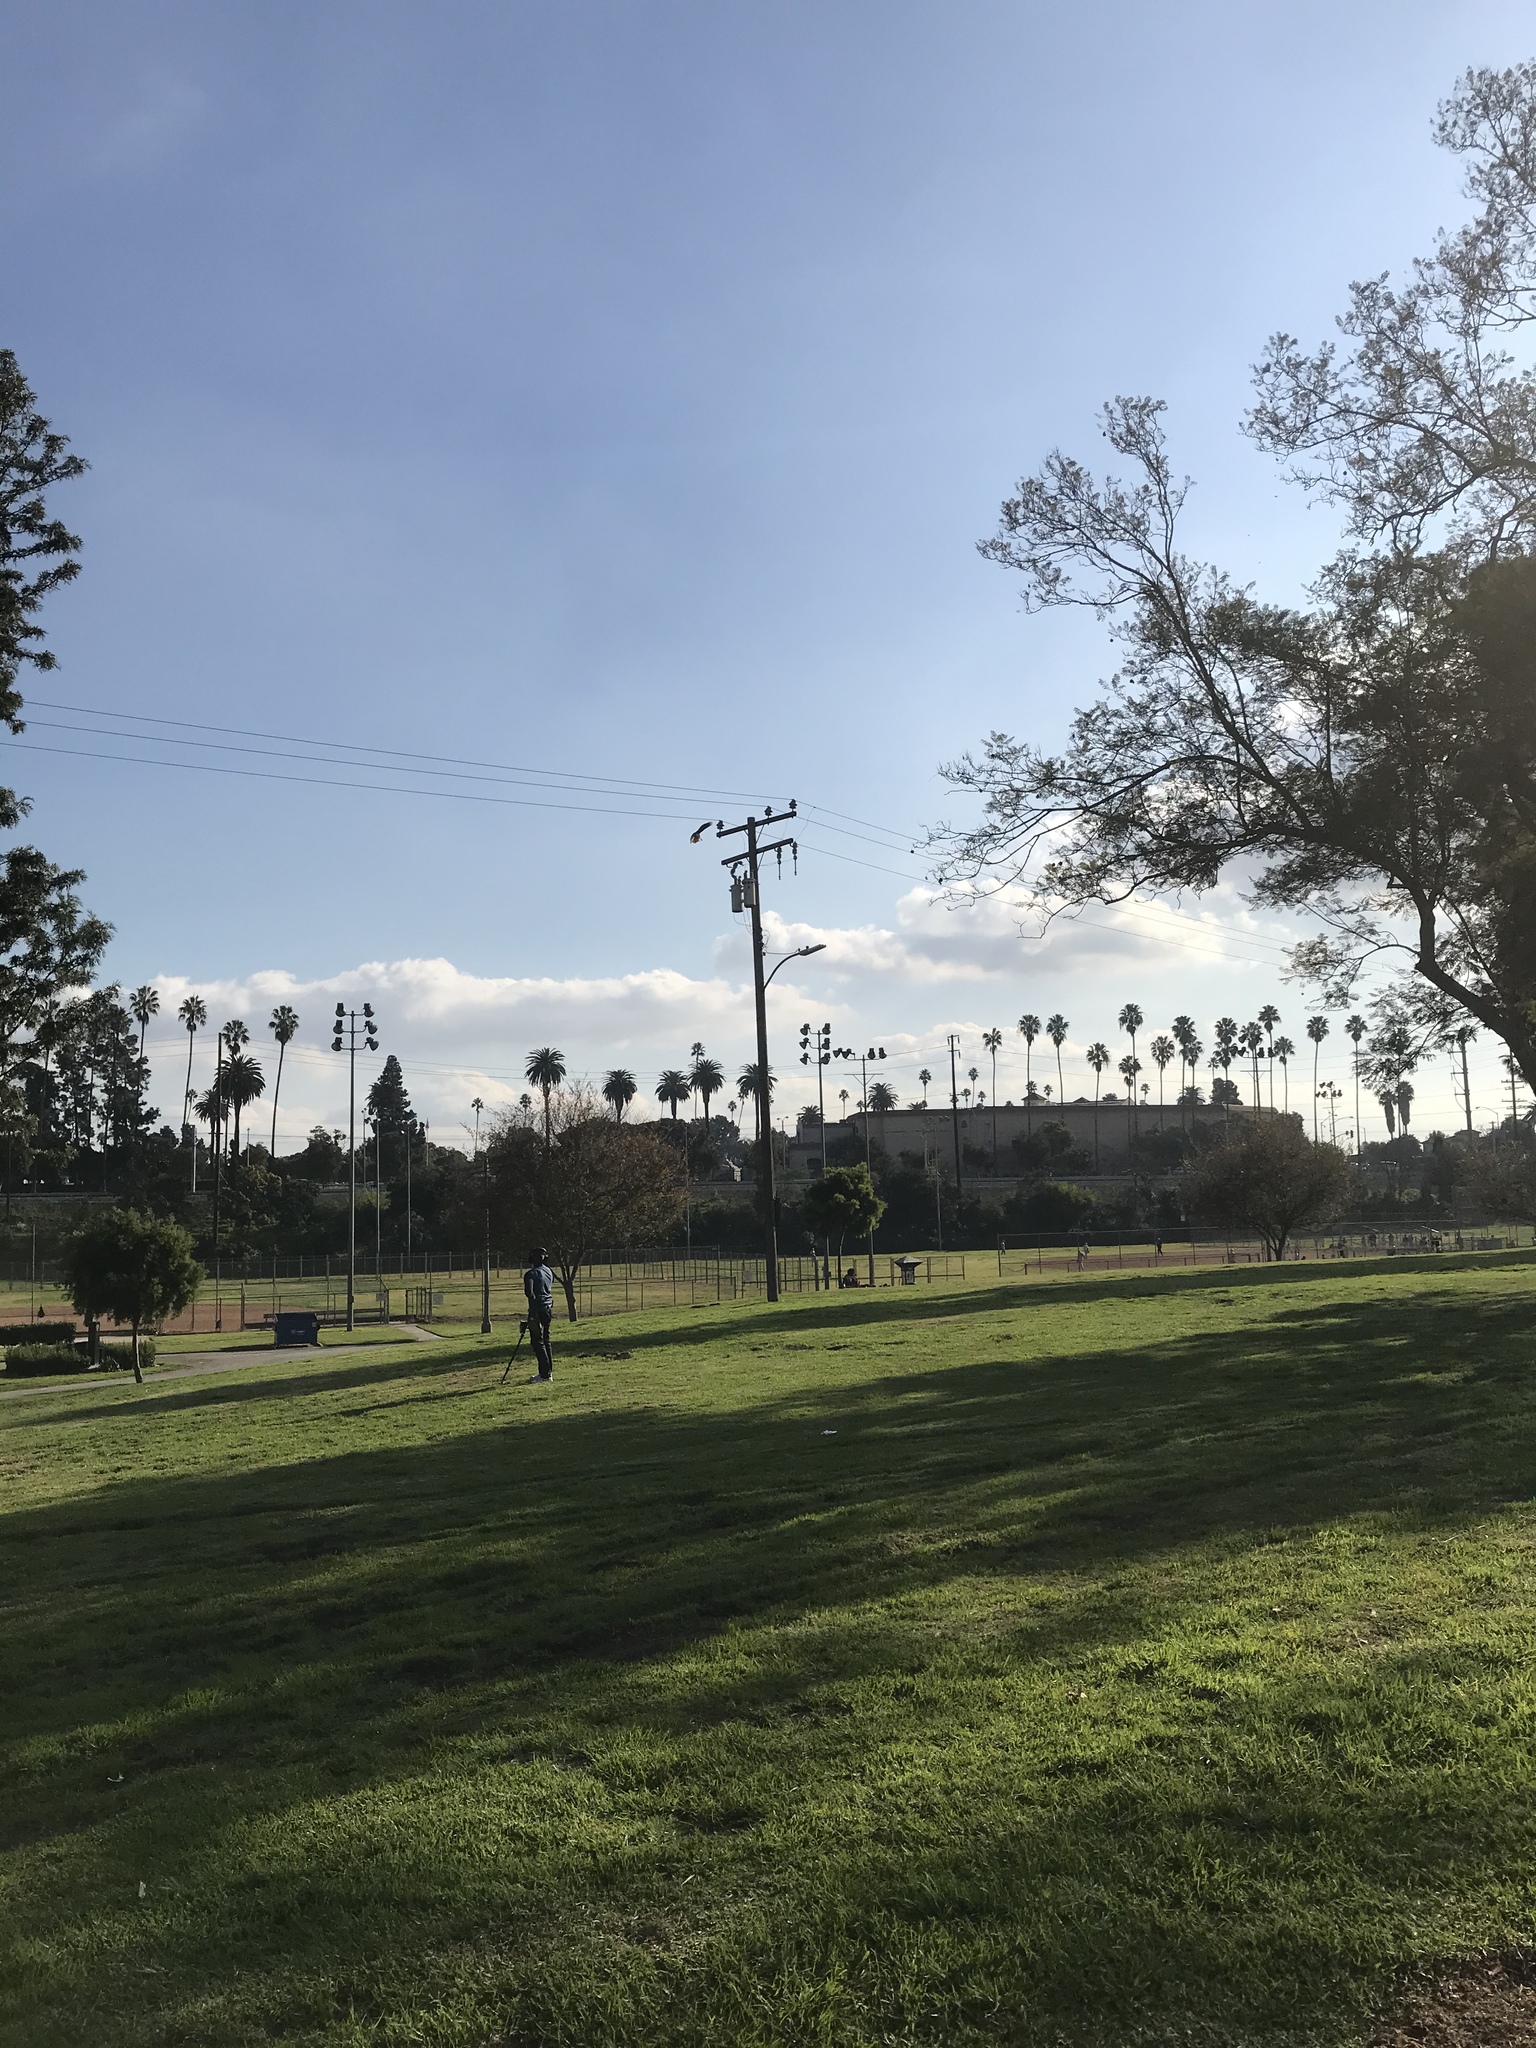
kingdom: Animalia
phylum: Chordata
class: Aves
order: Accipitriformes
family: Accipitridae
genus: Buteo
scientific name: Buteo jamaicensis
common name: Red-tailed hawk
